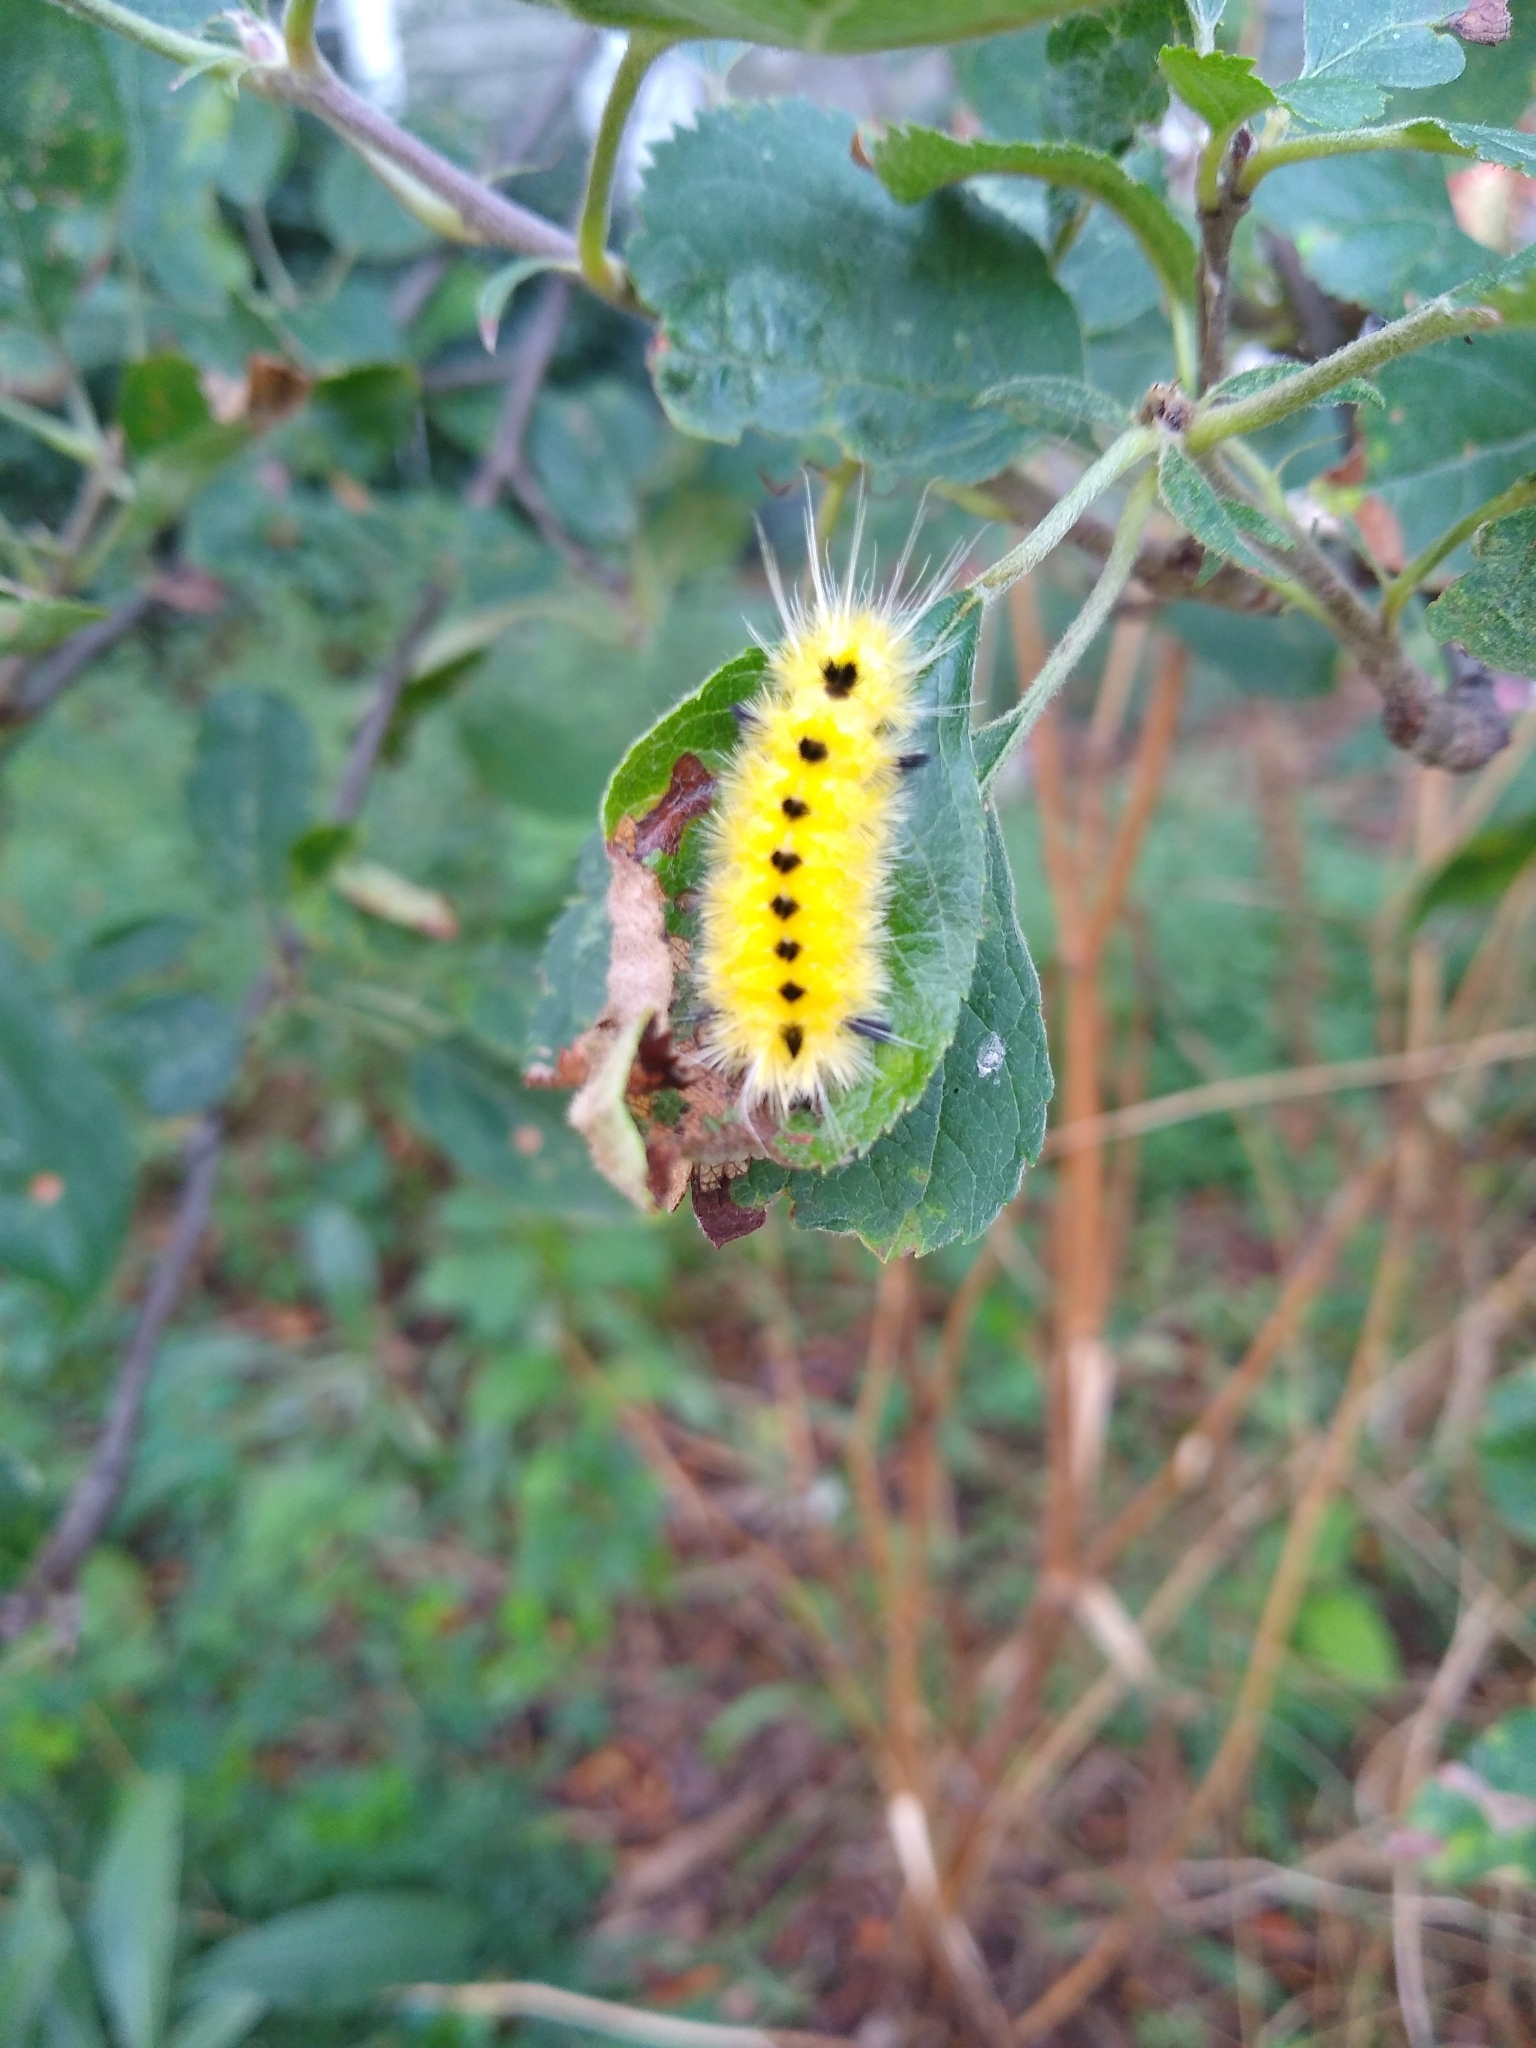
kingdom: Animalia
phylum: Arthropoda
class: Insecta
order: Lepidoptera
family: Erebidae
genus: Lophocampa
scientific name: Lophocampa maculata
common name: Spotted tussock moth
